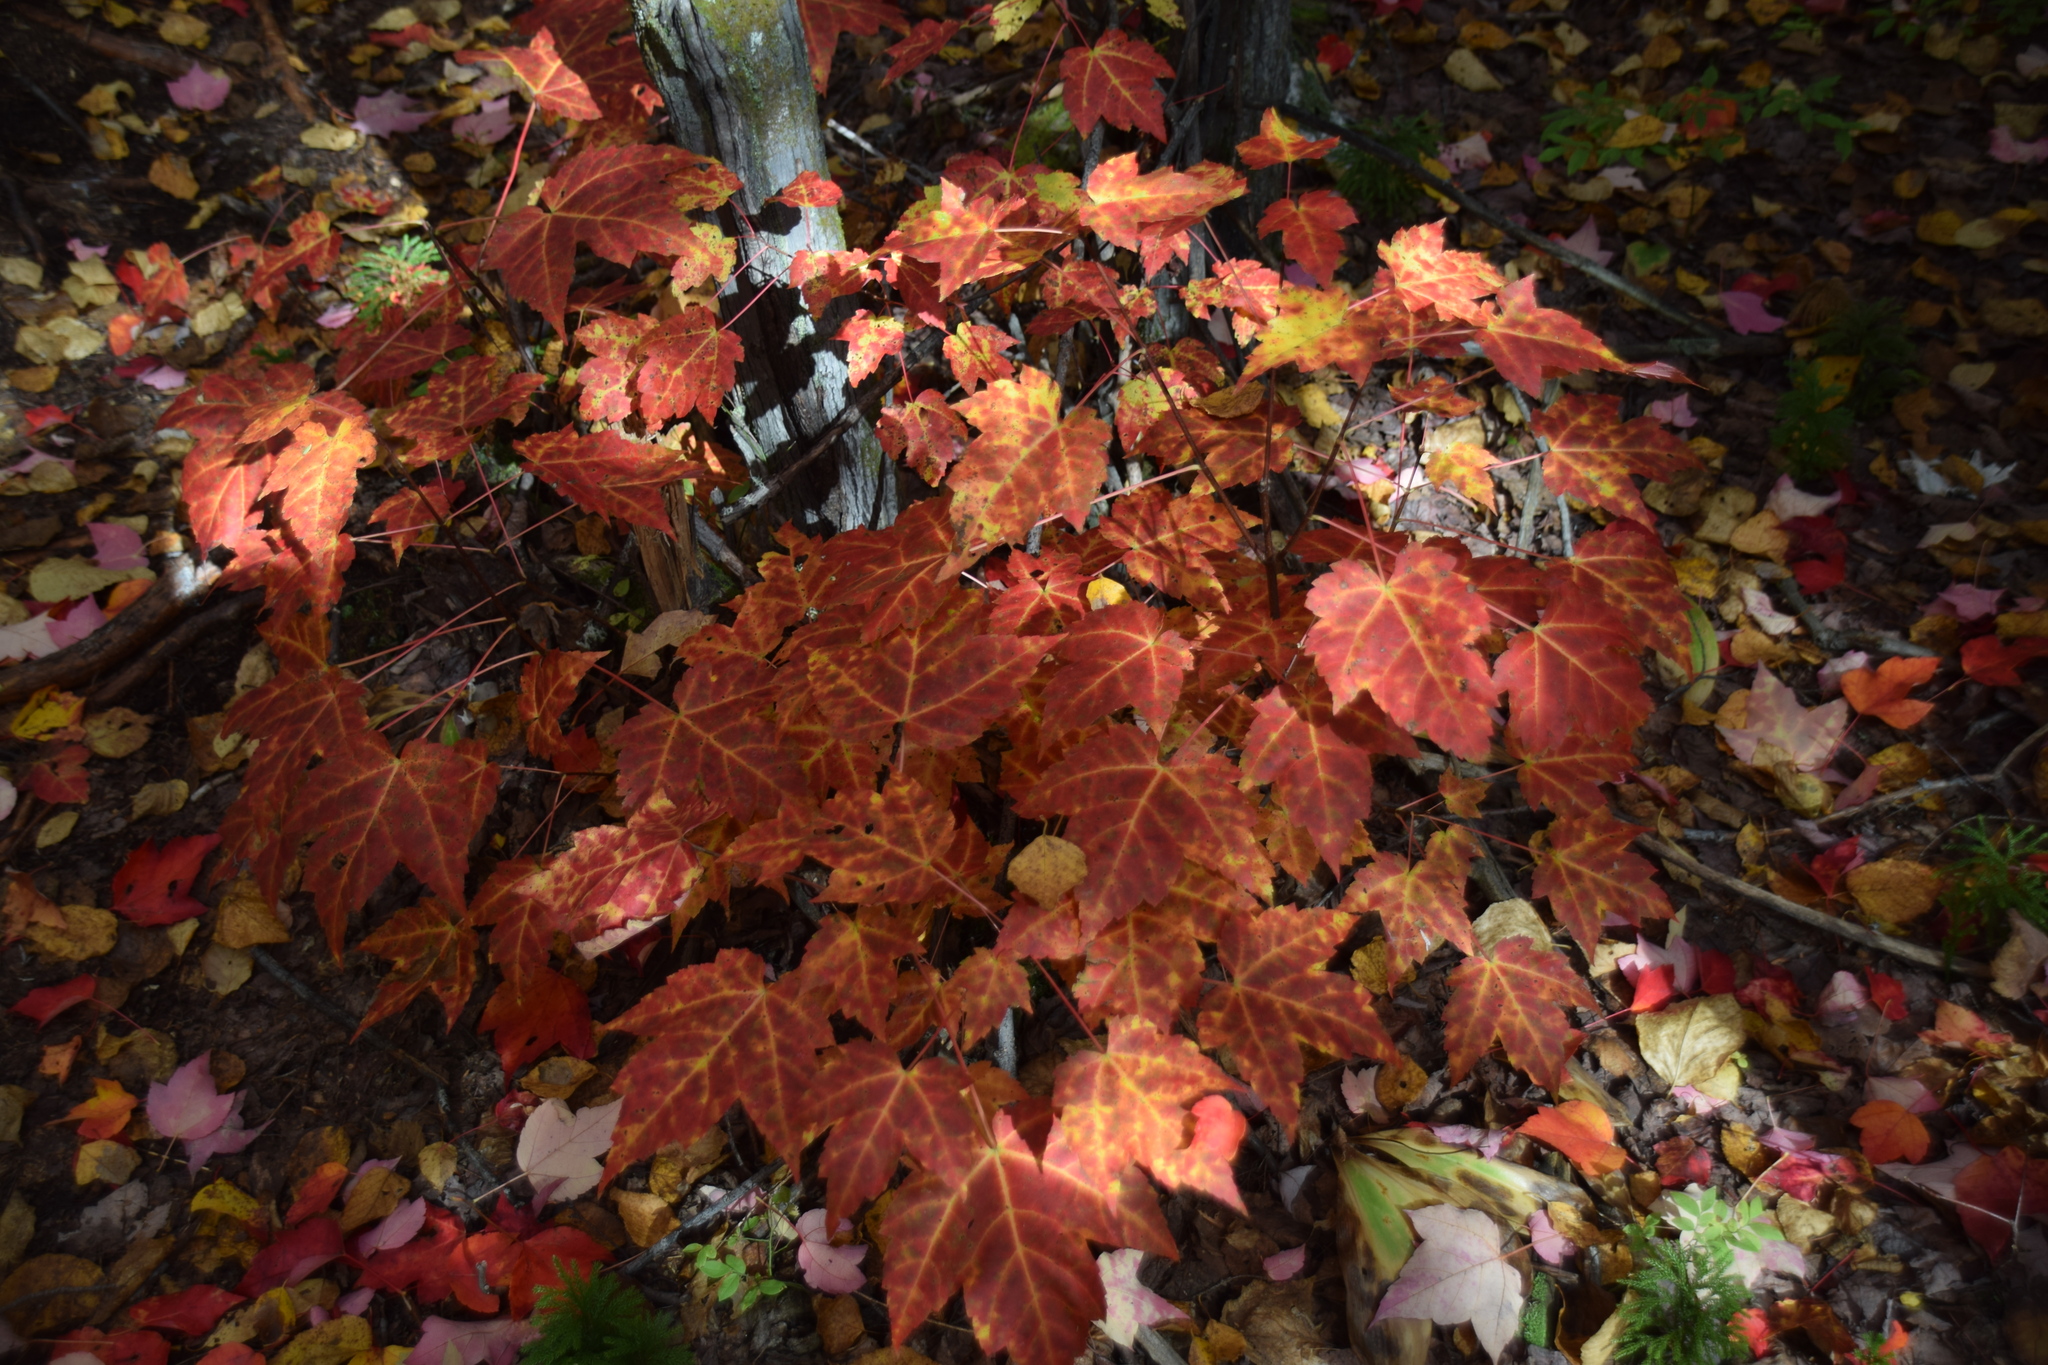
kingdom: Plantae
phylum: Tracheophyta
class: Magnoliopsida
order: Sapindales
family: Sapindaceae
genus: Acer
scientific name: Acer rubrum
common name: Red maple
